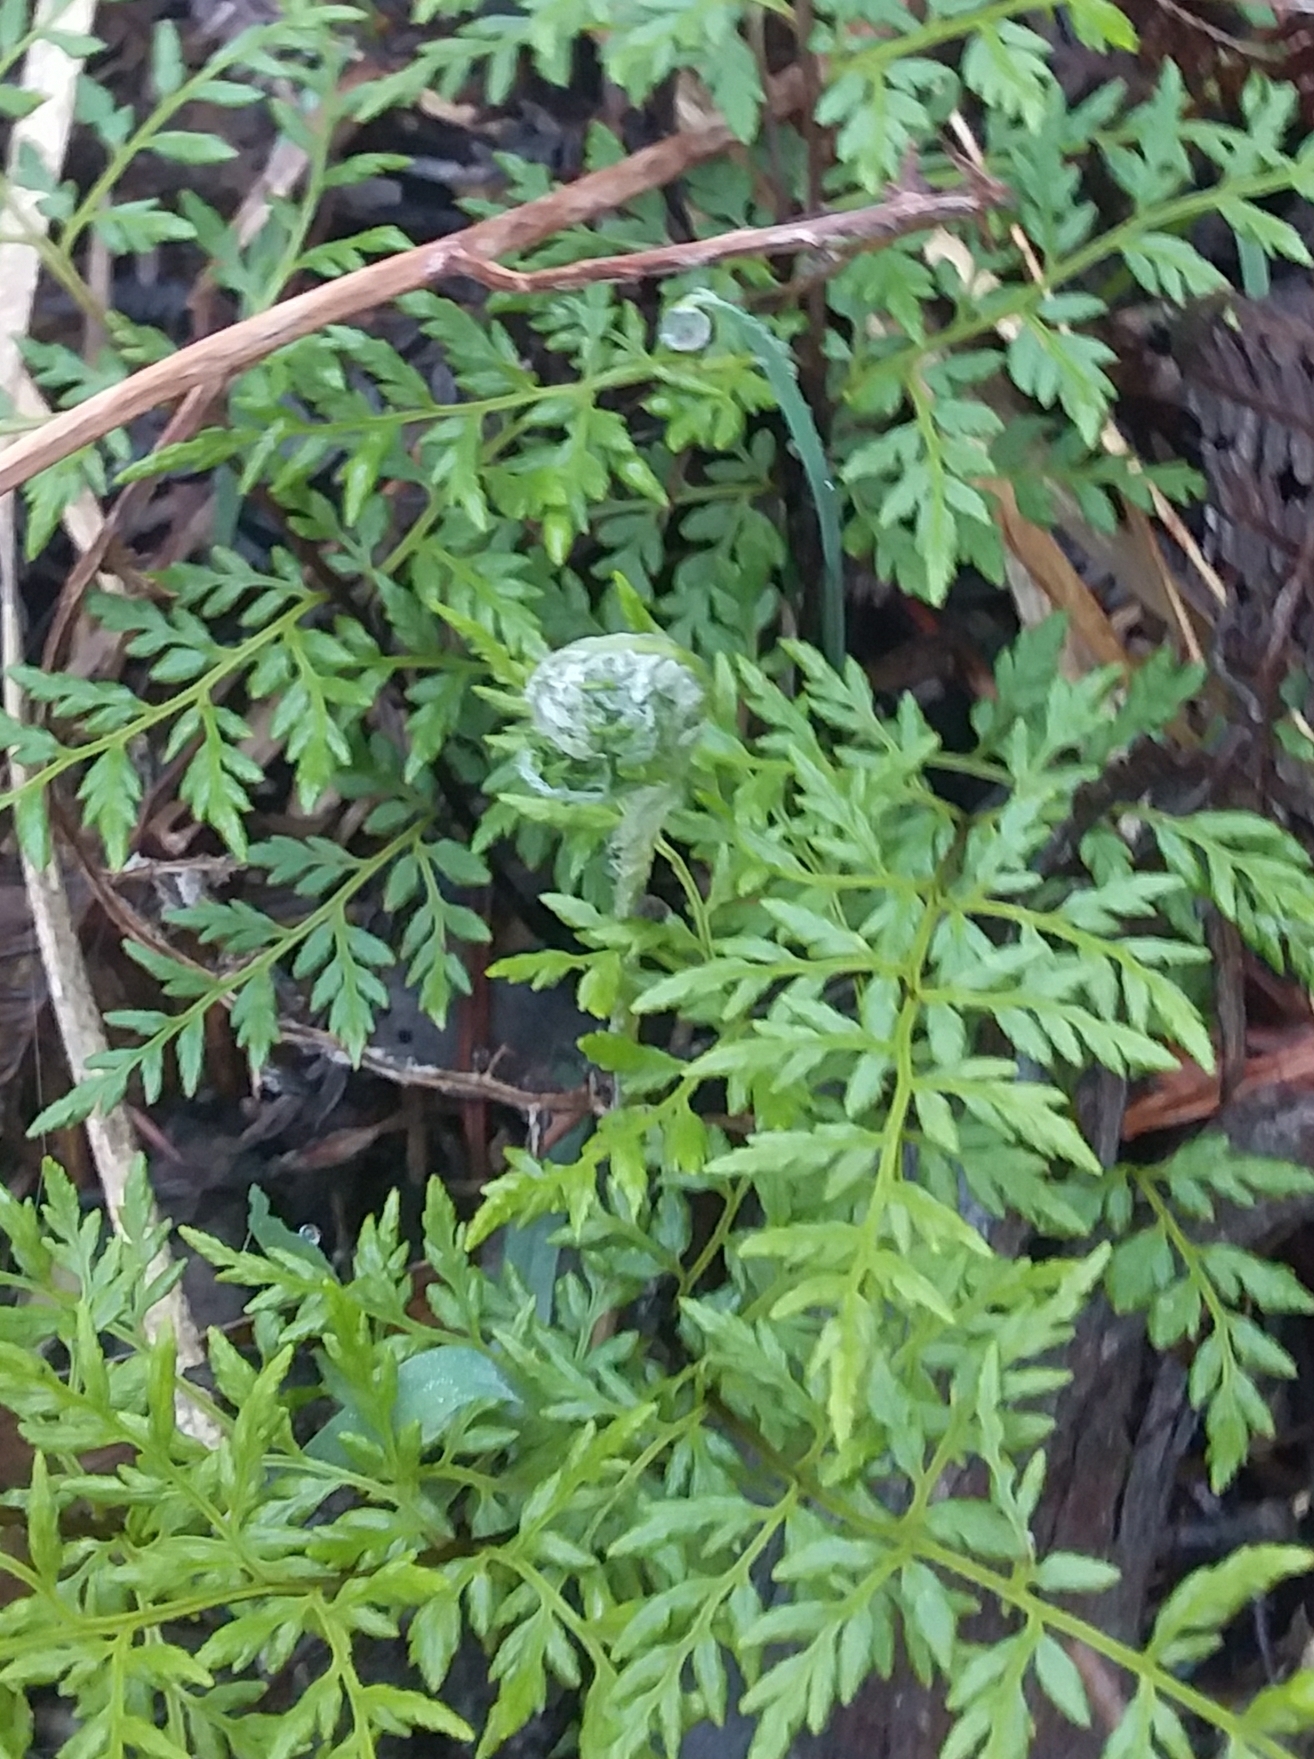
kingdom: Plantae
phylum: Tracheophyta
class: Polypodiopsida
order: Polypodiales
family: Pteridaceae
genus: Cheilanthes
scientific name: Cheilanthes austrotenuifolia
